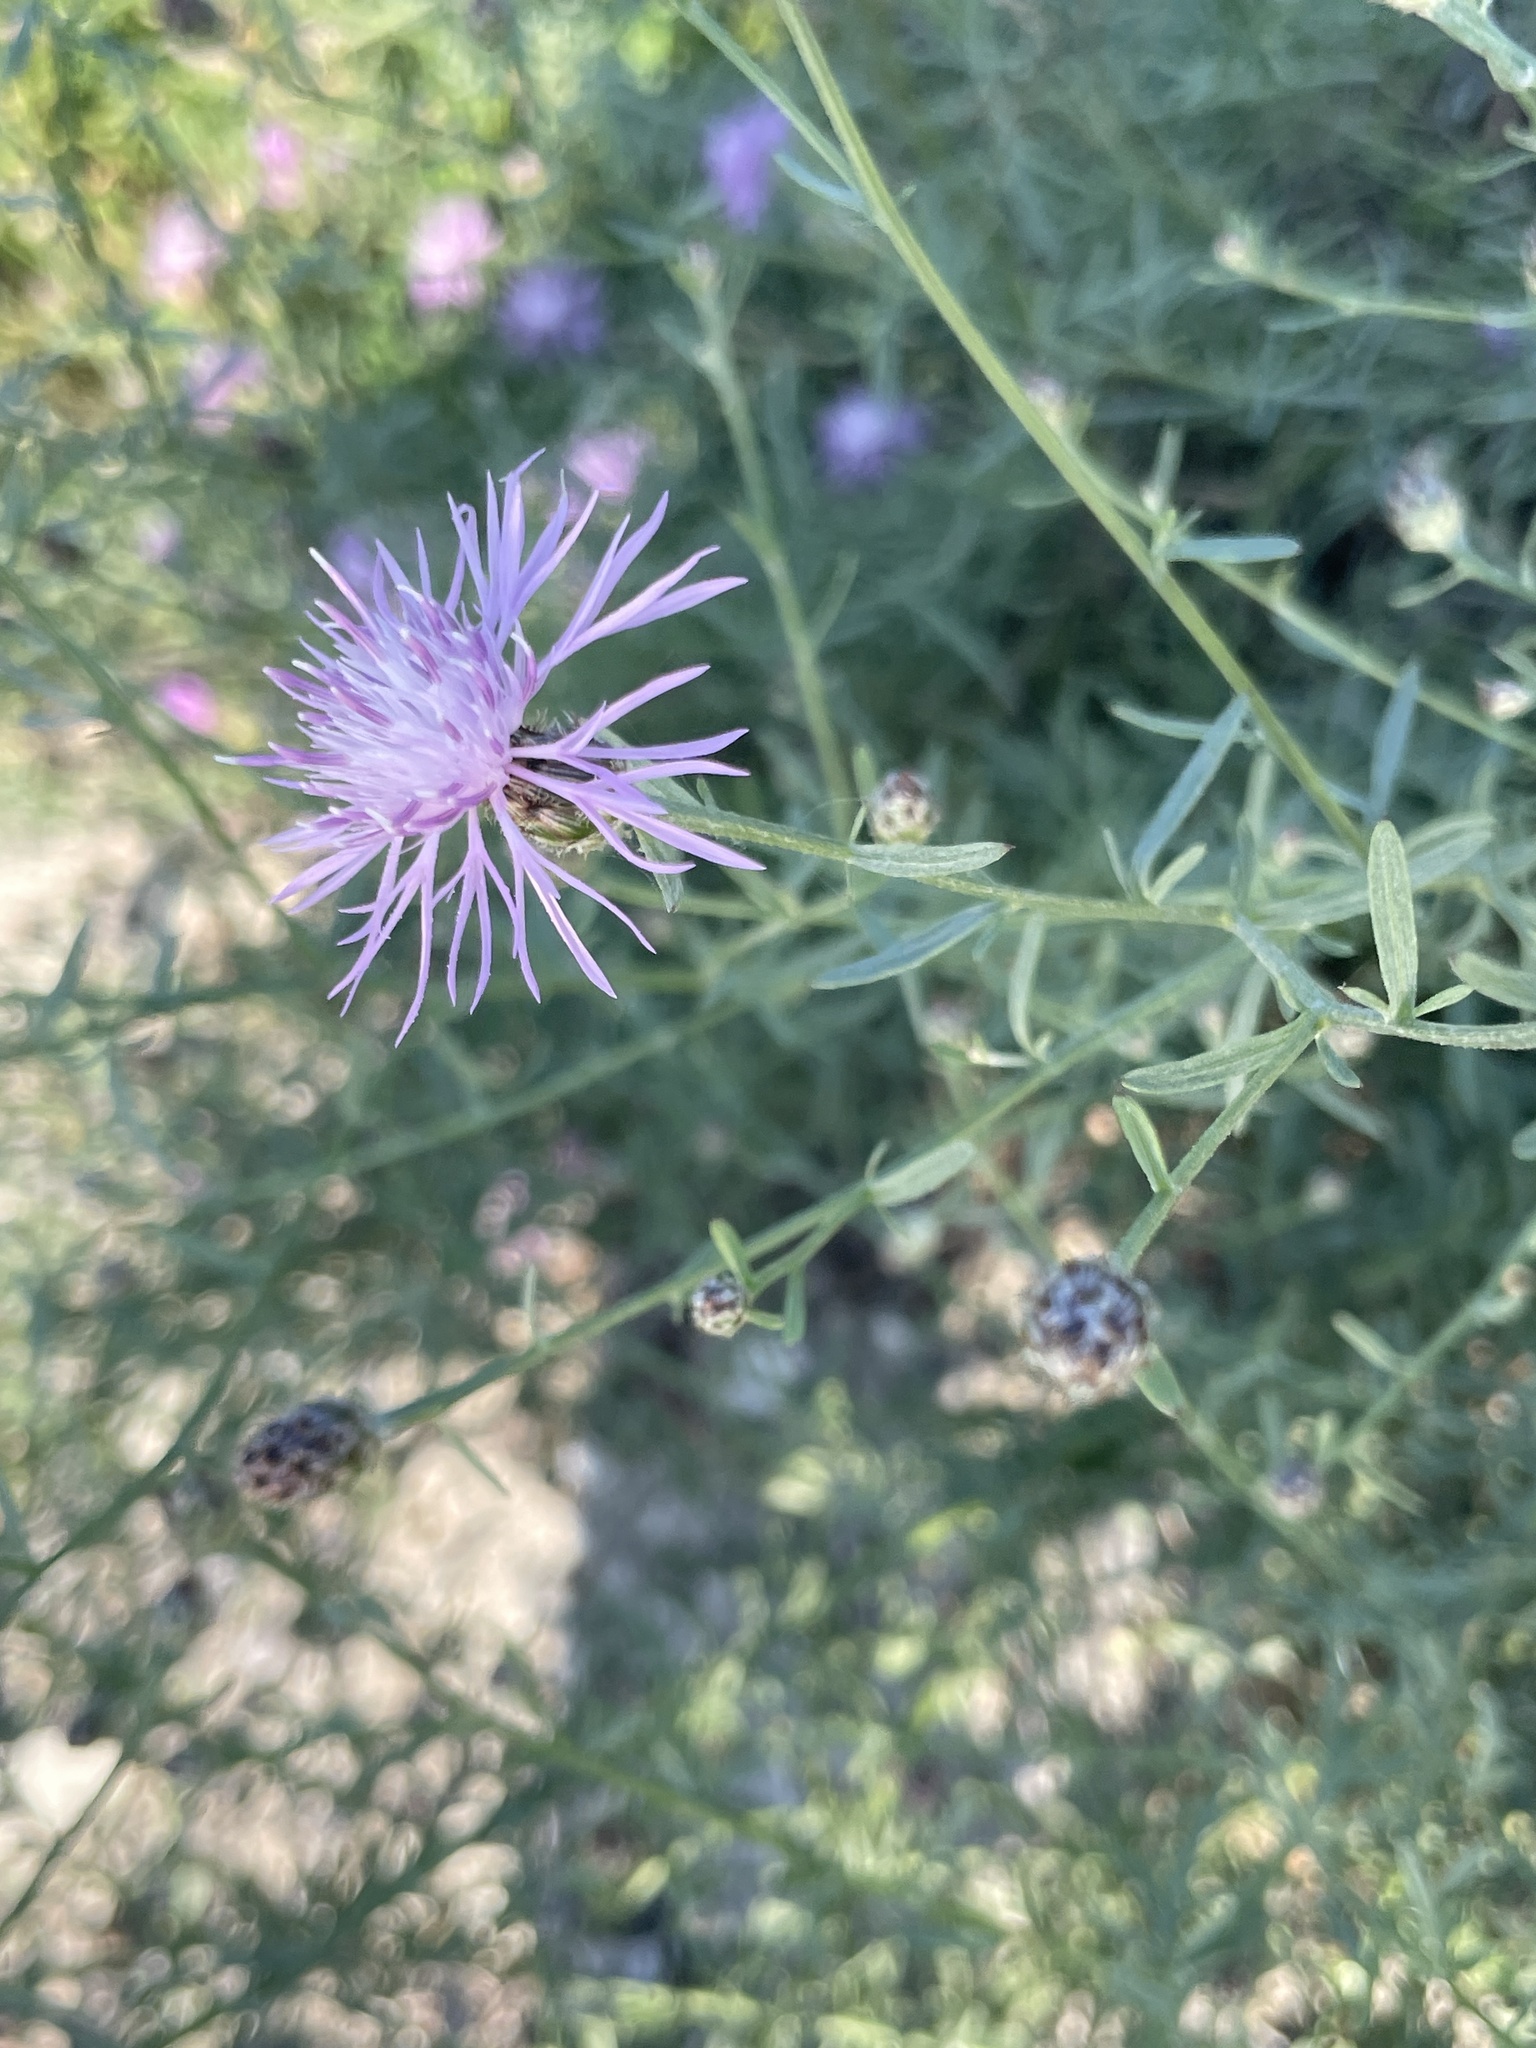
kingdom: Plantae
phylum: Tracheophyta
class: Magnoliopsida
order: Asterales
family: Asteraceae
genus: Centaurea
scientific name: Centaurea stoebe
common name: Spotted knapweed
